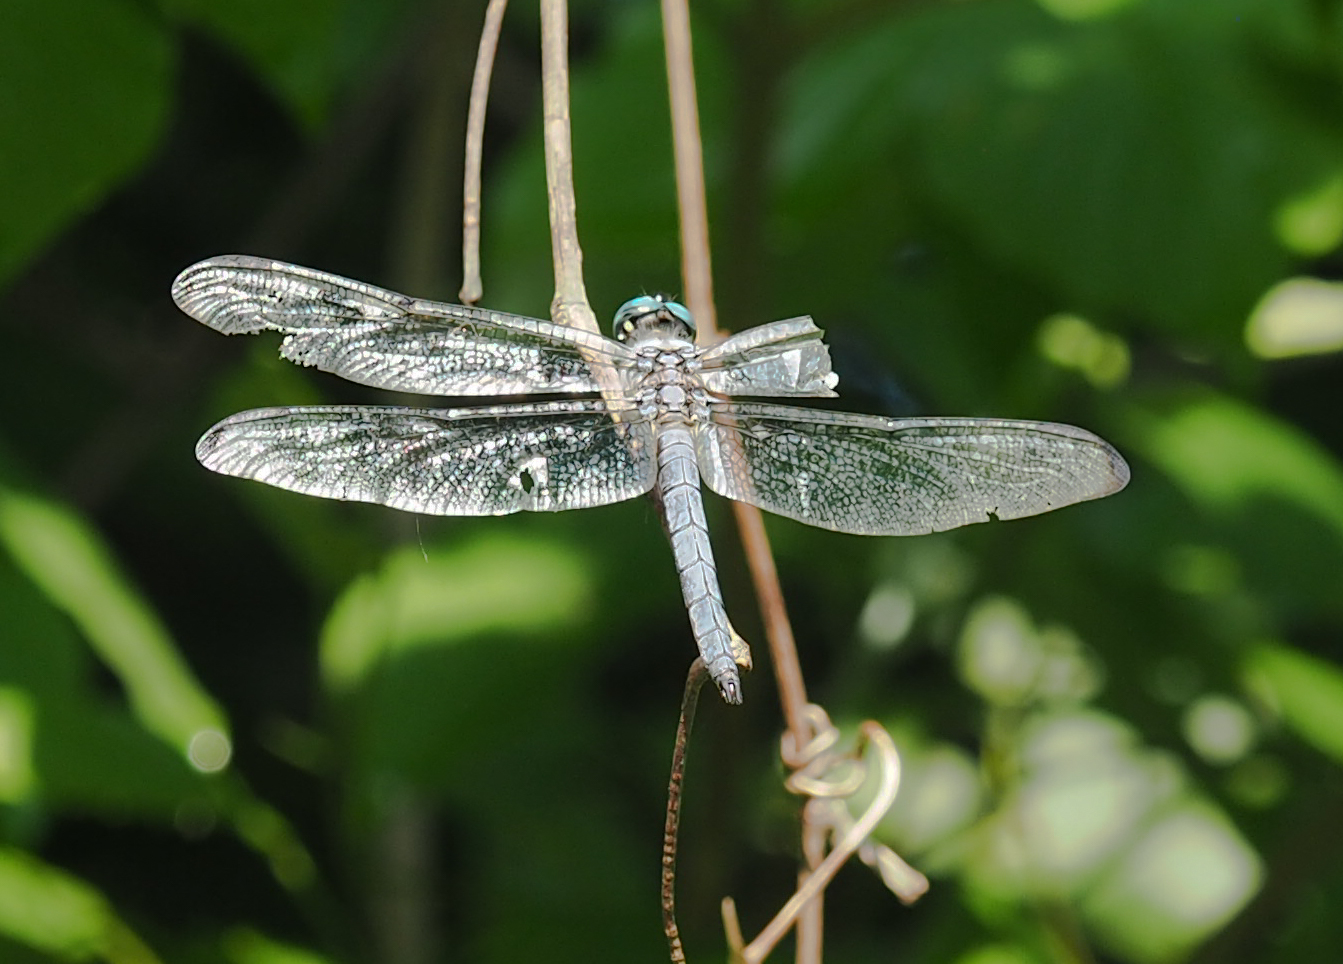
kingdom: Animalia
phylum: Arthropoda
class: Insecta
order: Odonata
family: Libellulidae
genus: Libellula
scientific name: Libellula vibrans
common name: Great blue skimmer
